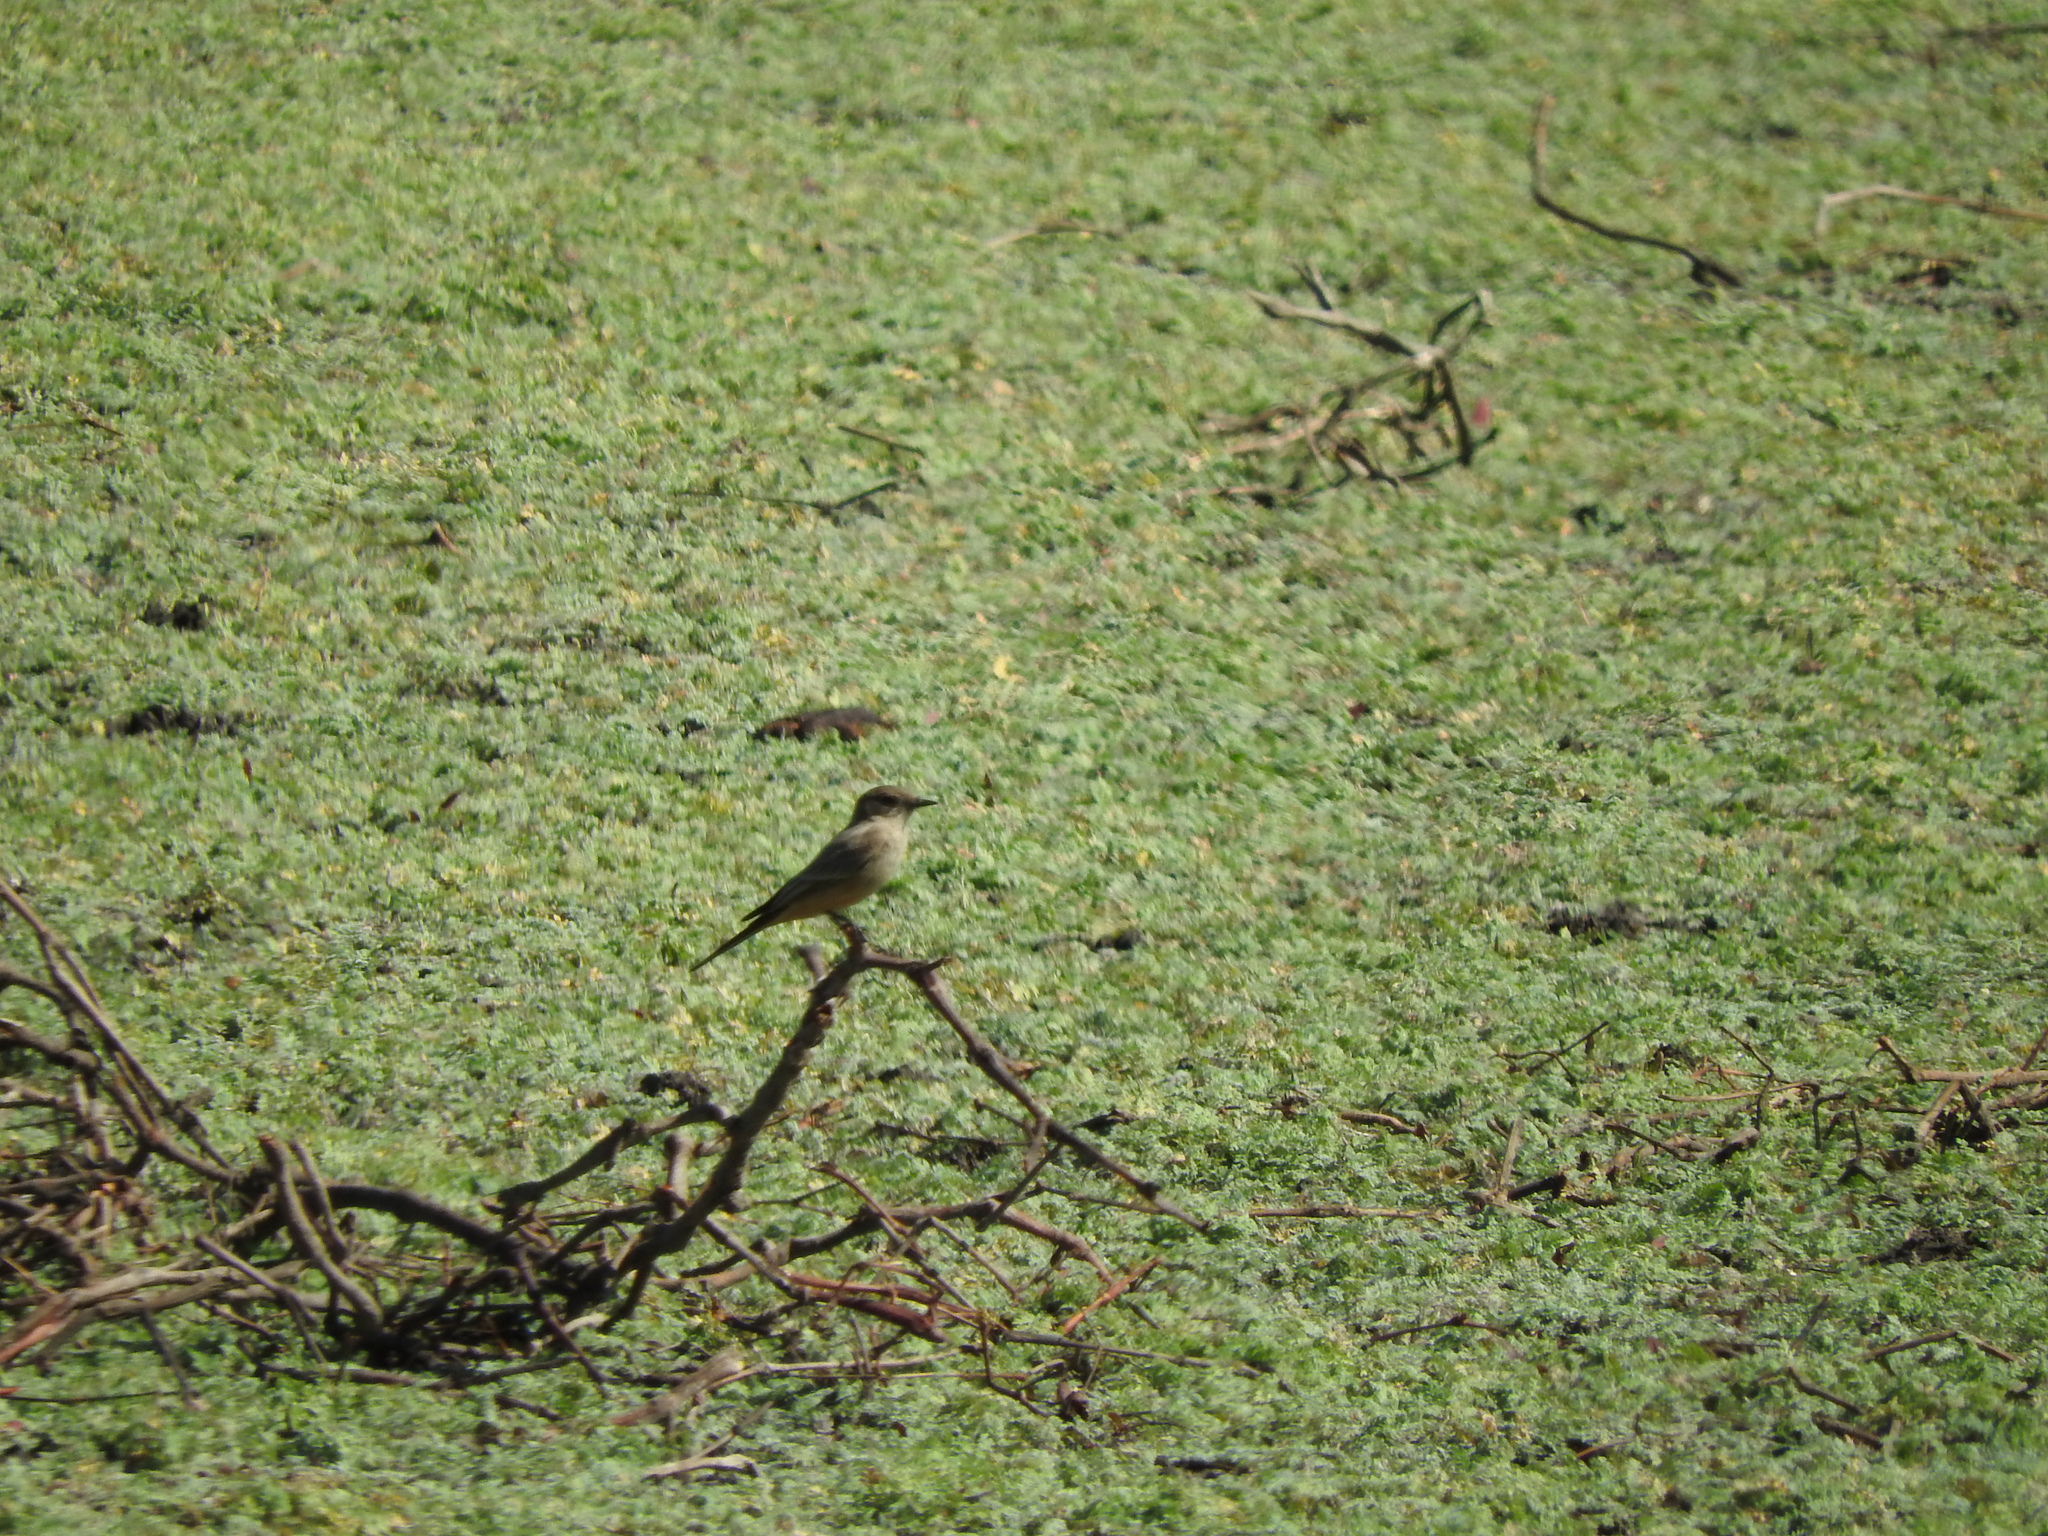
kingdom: Animalia
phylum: Chordata
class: Aves
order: Passeriformes
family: Tyrannidae
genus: Sayornis
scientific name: Sayornis saya
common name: Say's phoebe
